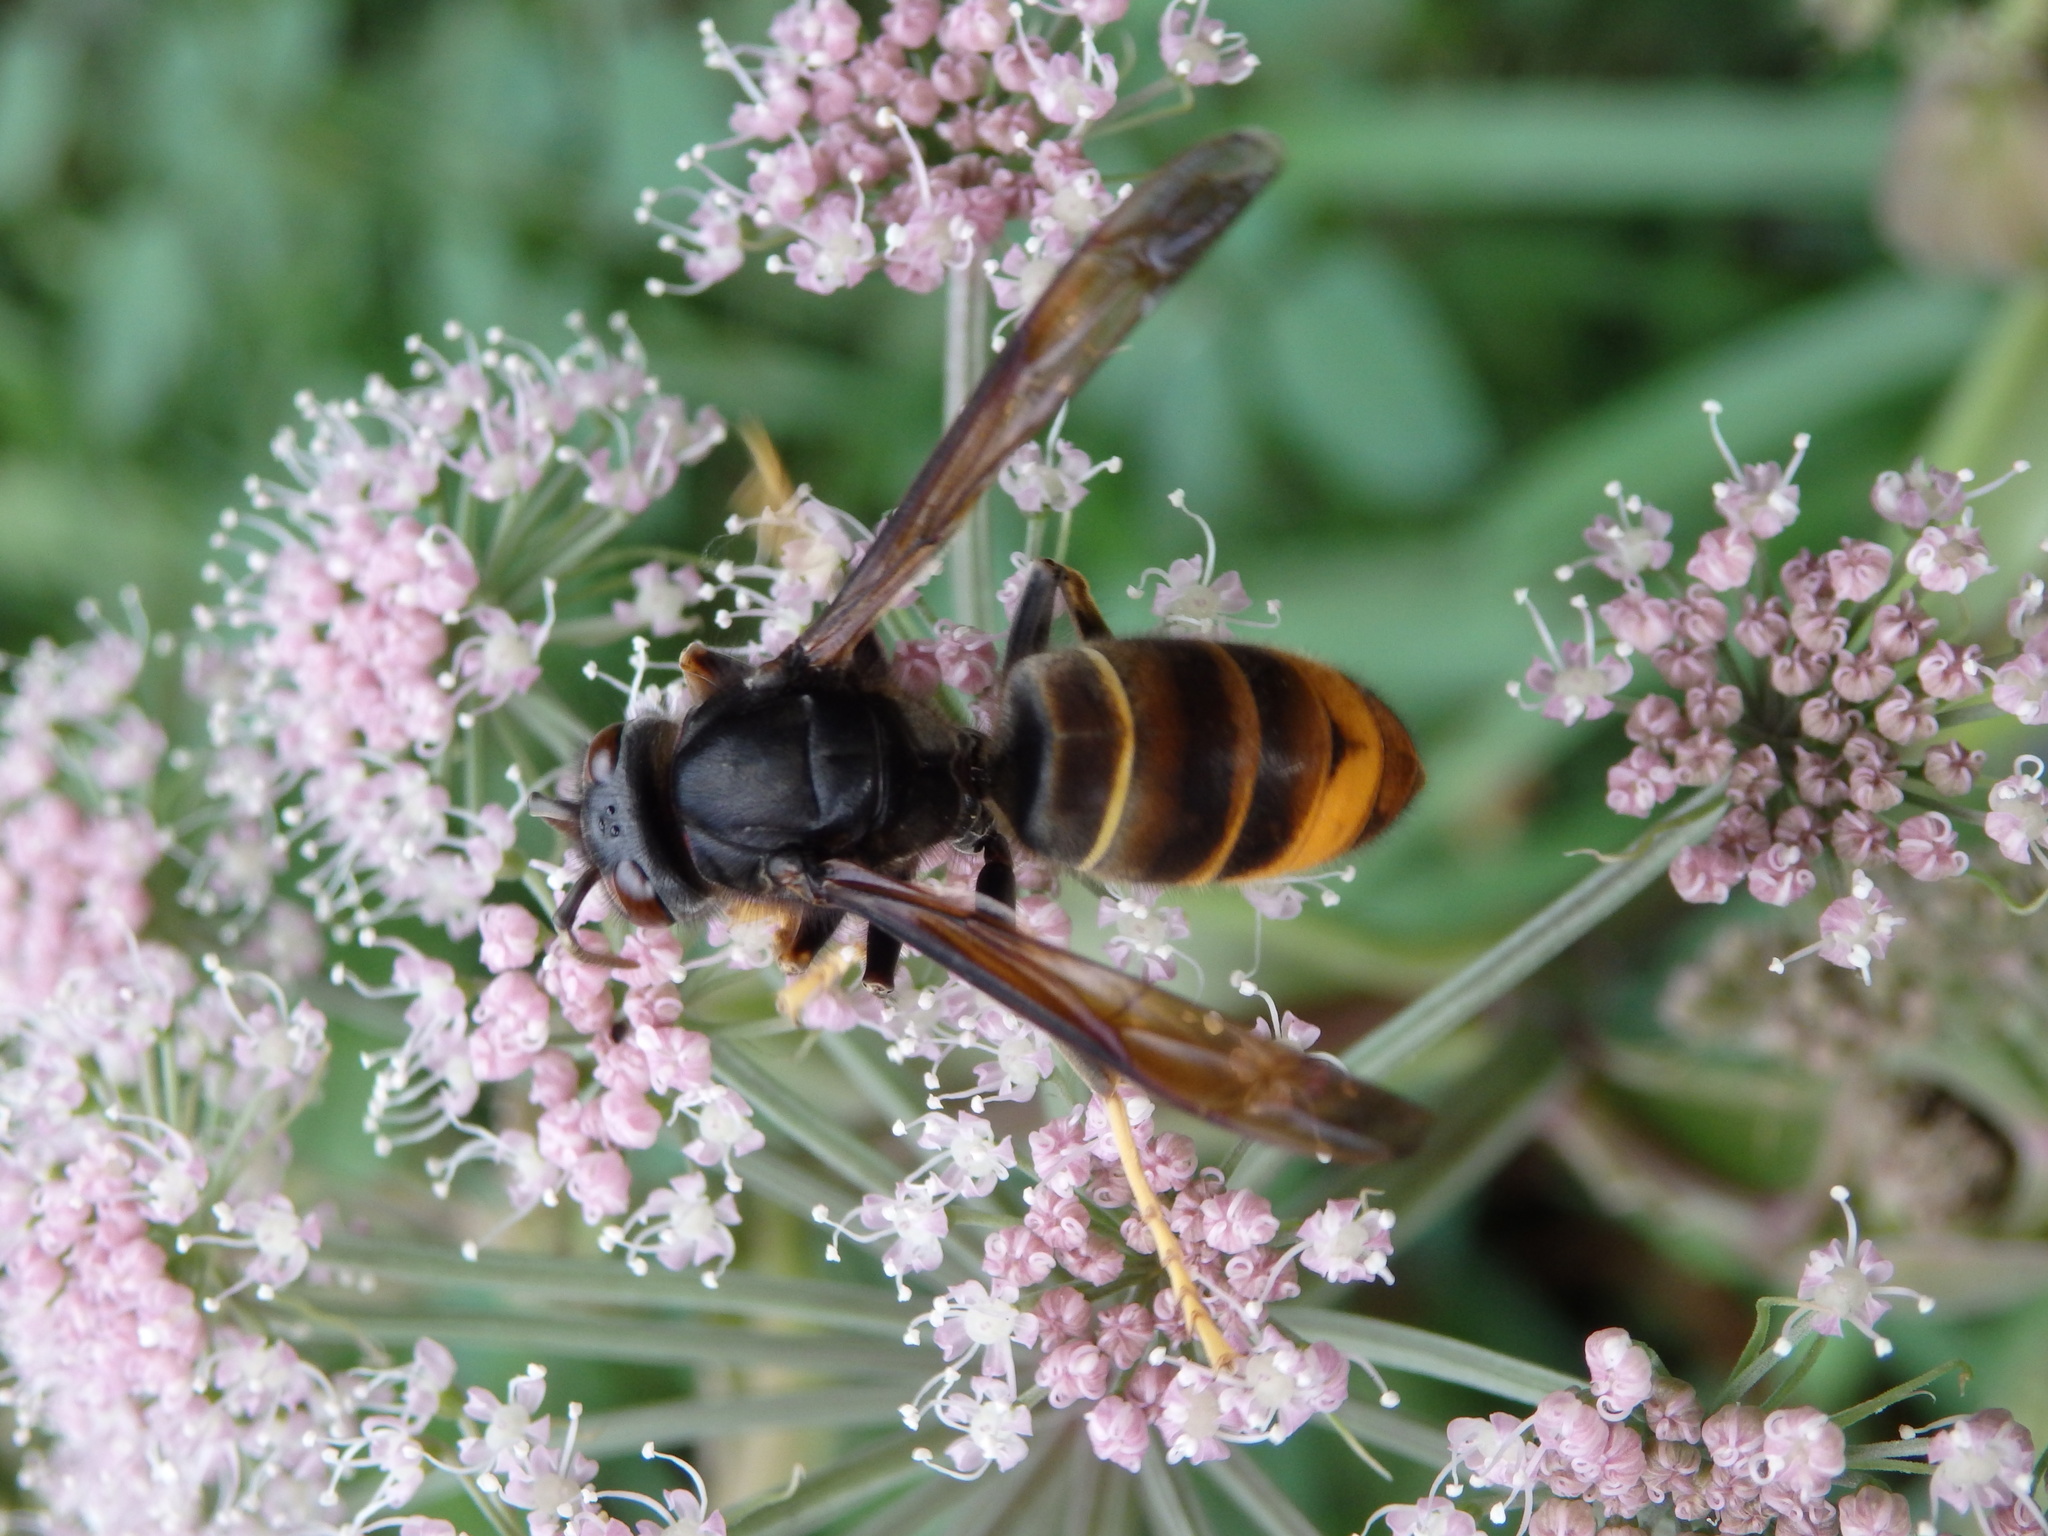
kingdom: Animalia
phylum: Arthropoda
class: Insecta
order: Hymenoptera
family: Vespidae
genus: Vespa
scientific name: Vespa velutina
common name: Asian hornet
